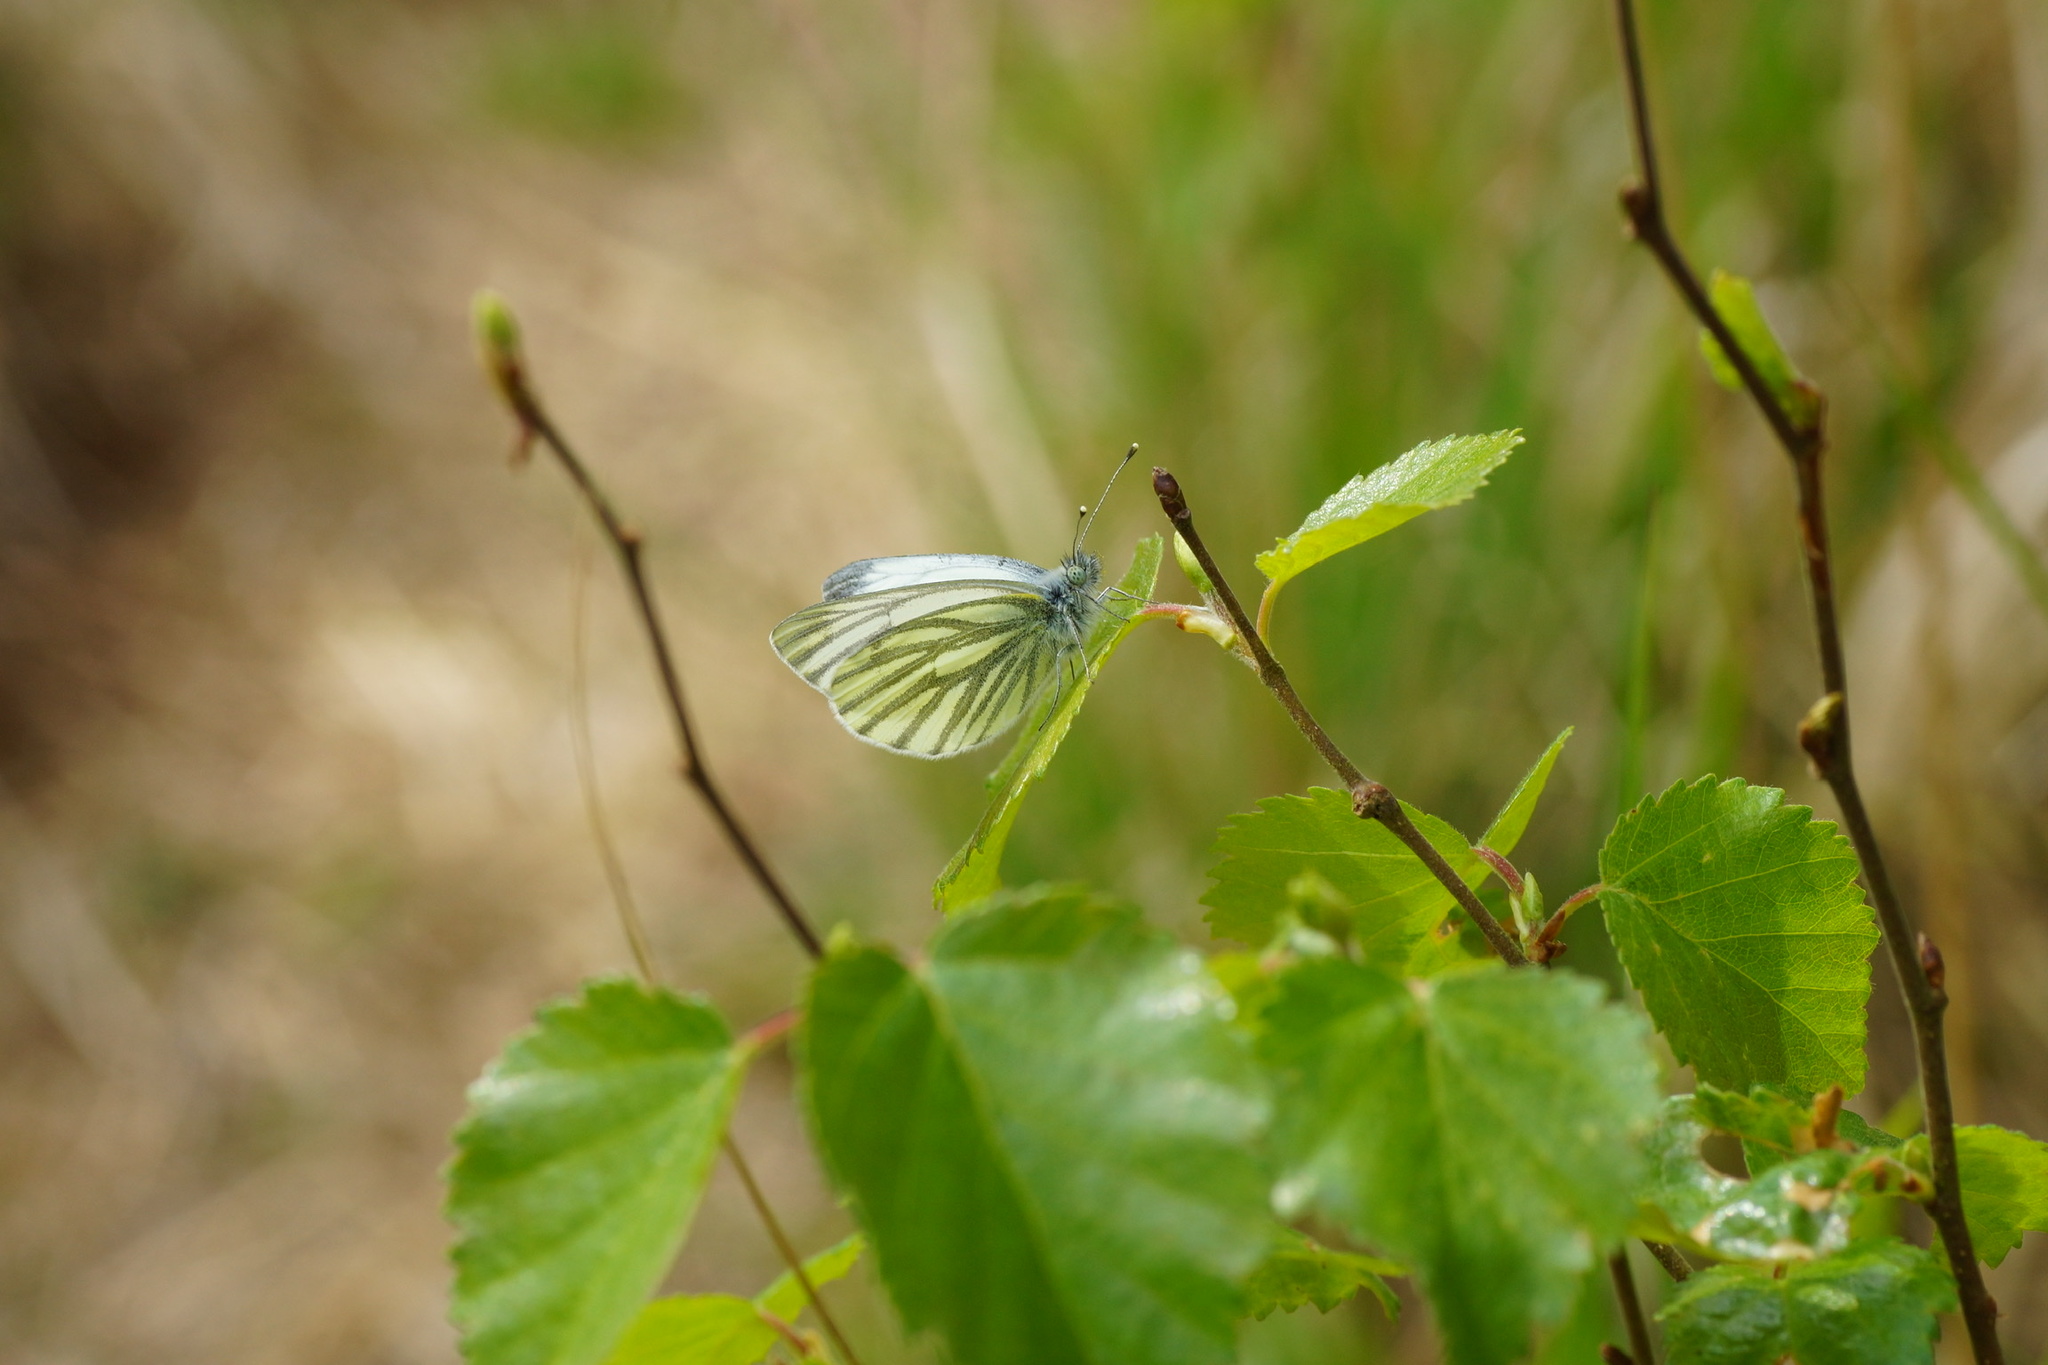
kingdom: Animalia
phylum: Arthropoda
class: Insecta
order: Lepidoptera
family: Pieridae
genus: Pieris
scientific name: Pieris napi
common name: Green-veined white
